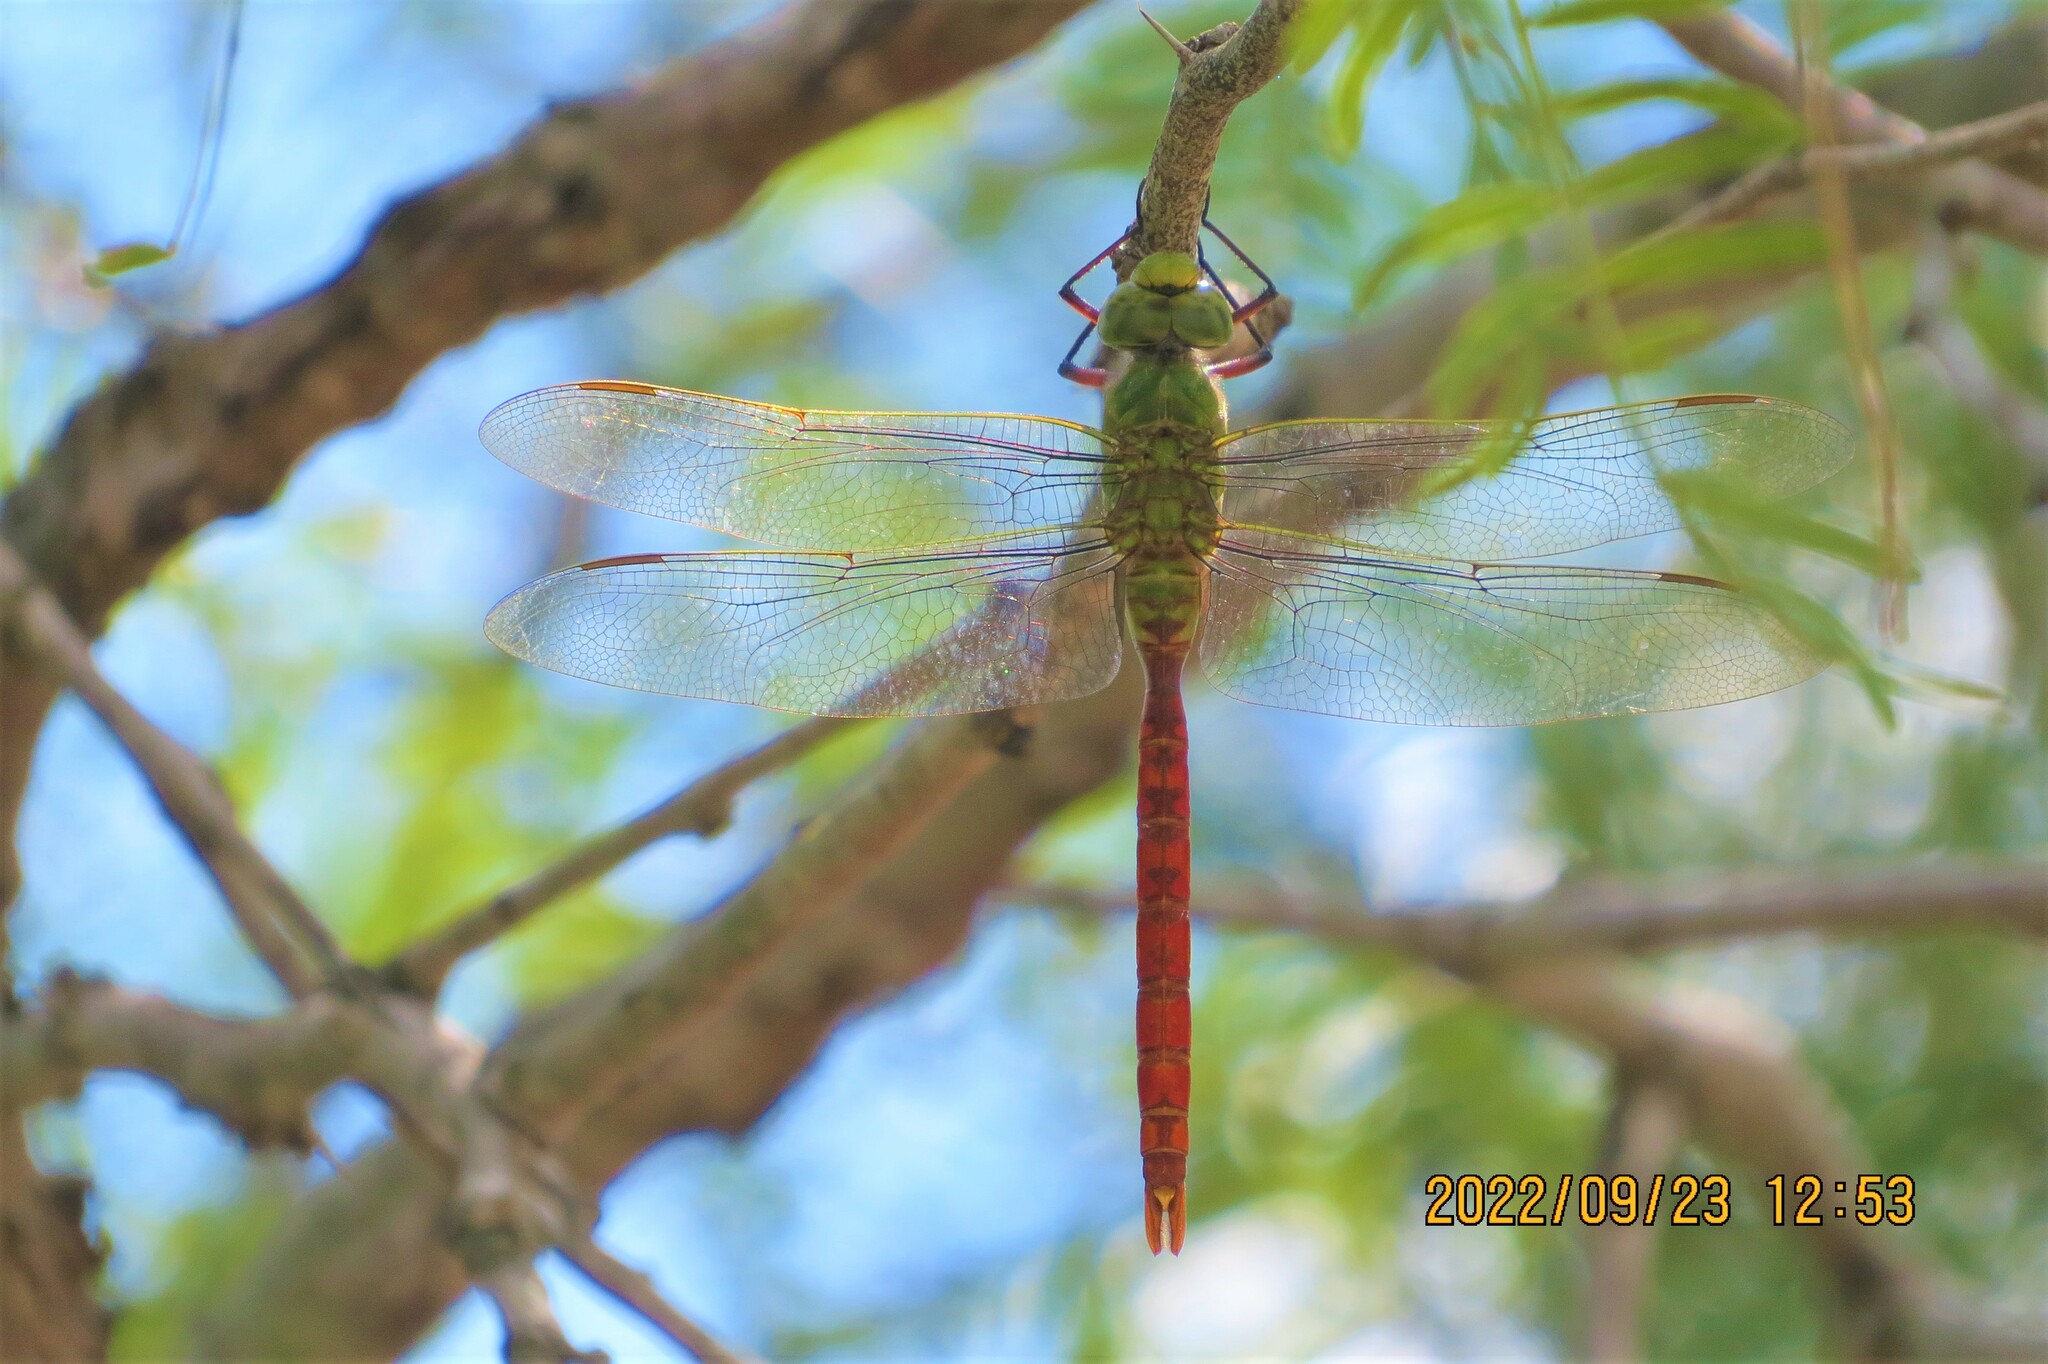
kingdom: Animalia
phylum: Arthropoda
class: Insecta
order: Odonata
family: Aeshnidae
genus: Anax
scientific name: Anax longipes
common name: Comet darner
